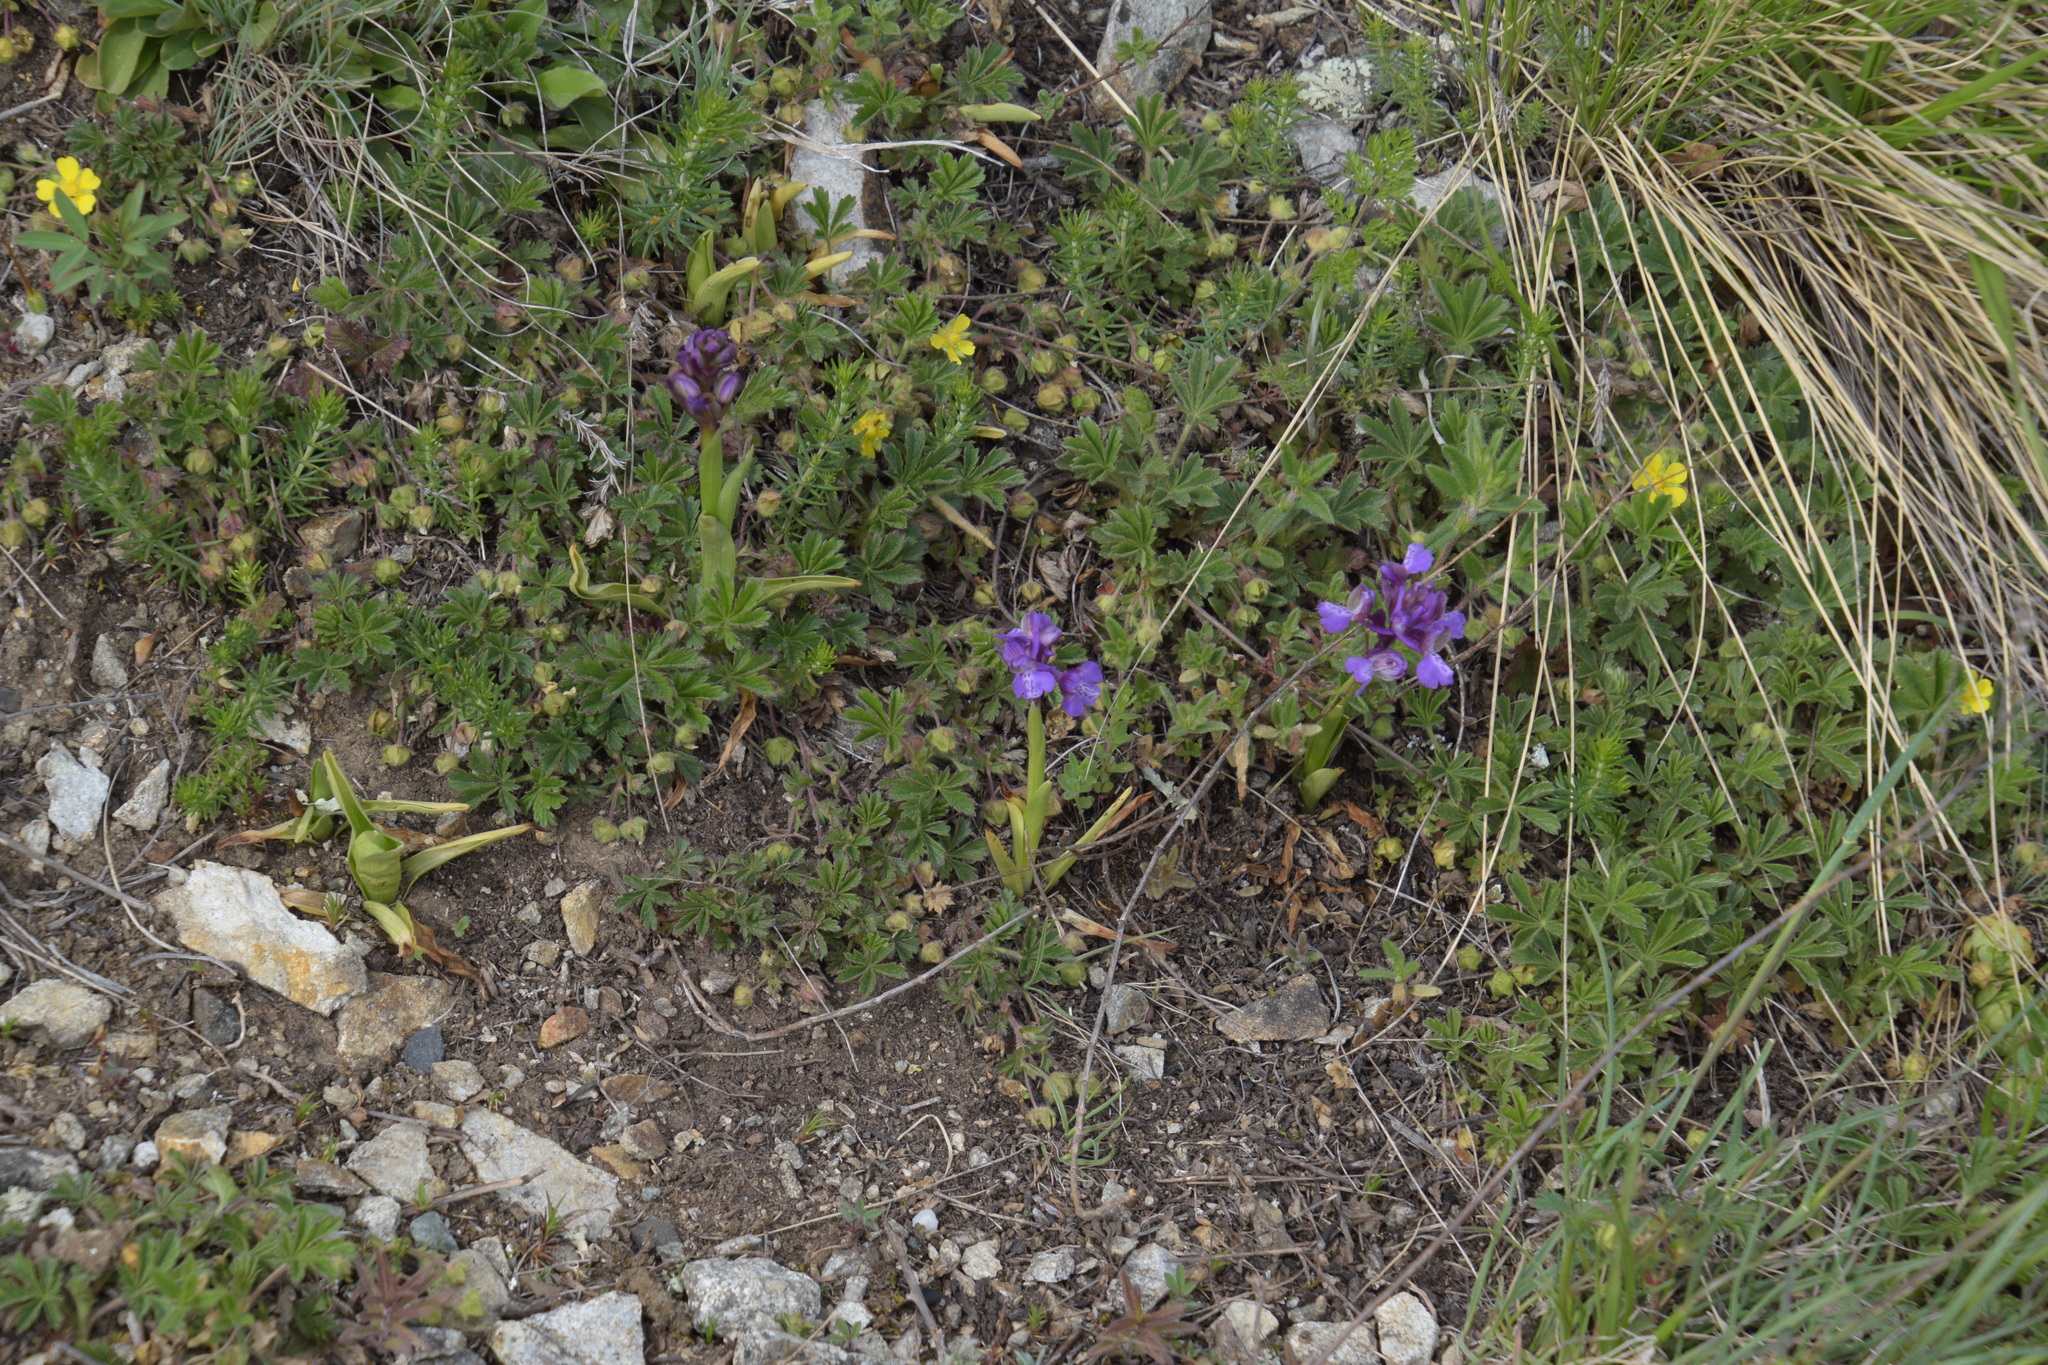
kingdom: Plantae
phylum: Tracheophyta
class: Liliopsida
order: Asparagales
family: Orchidaceae
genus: Anacamptis
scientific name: Anacamptis morio
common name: Green-winged orchid
